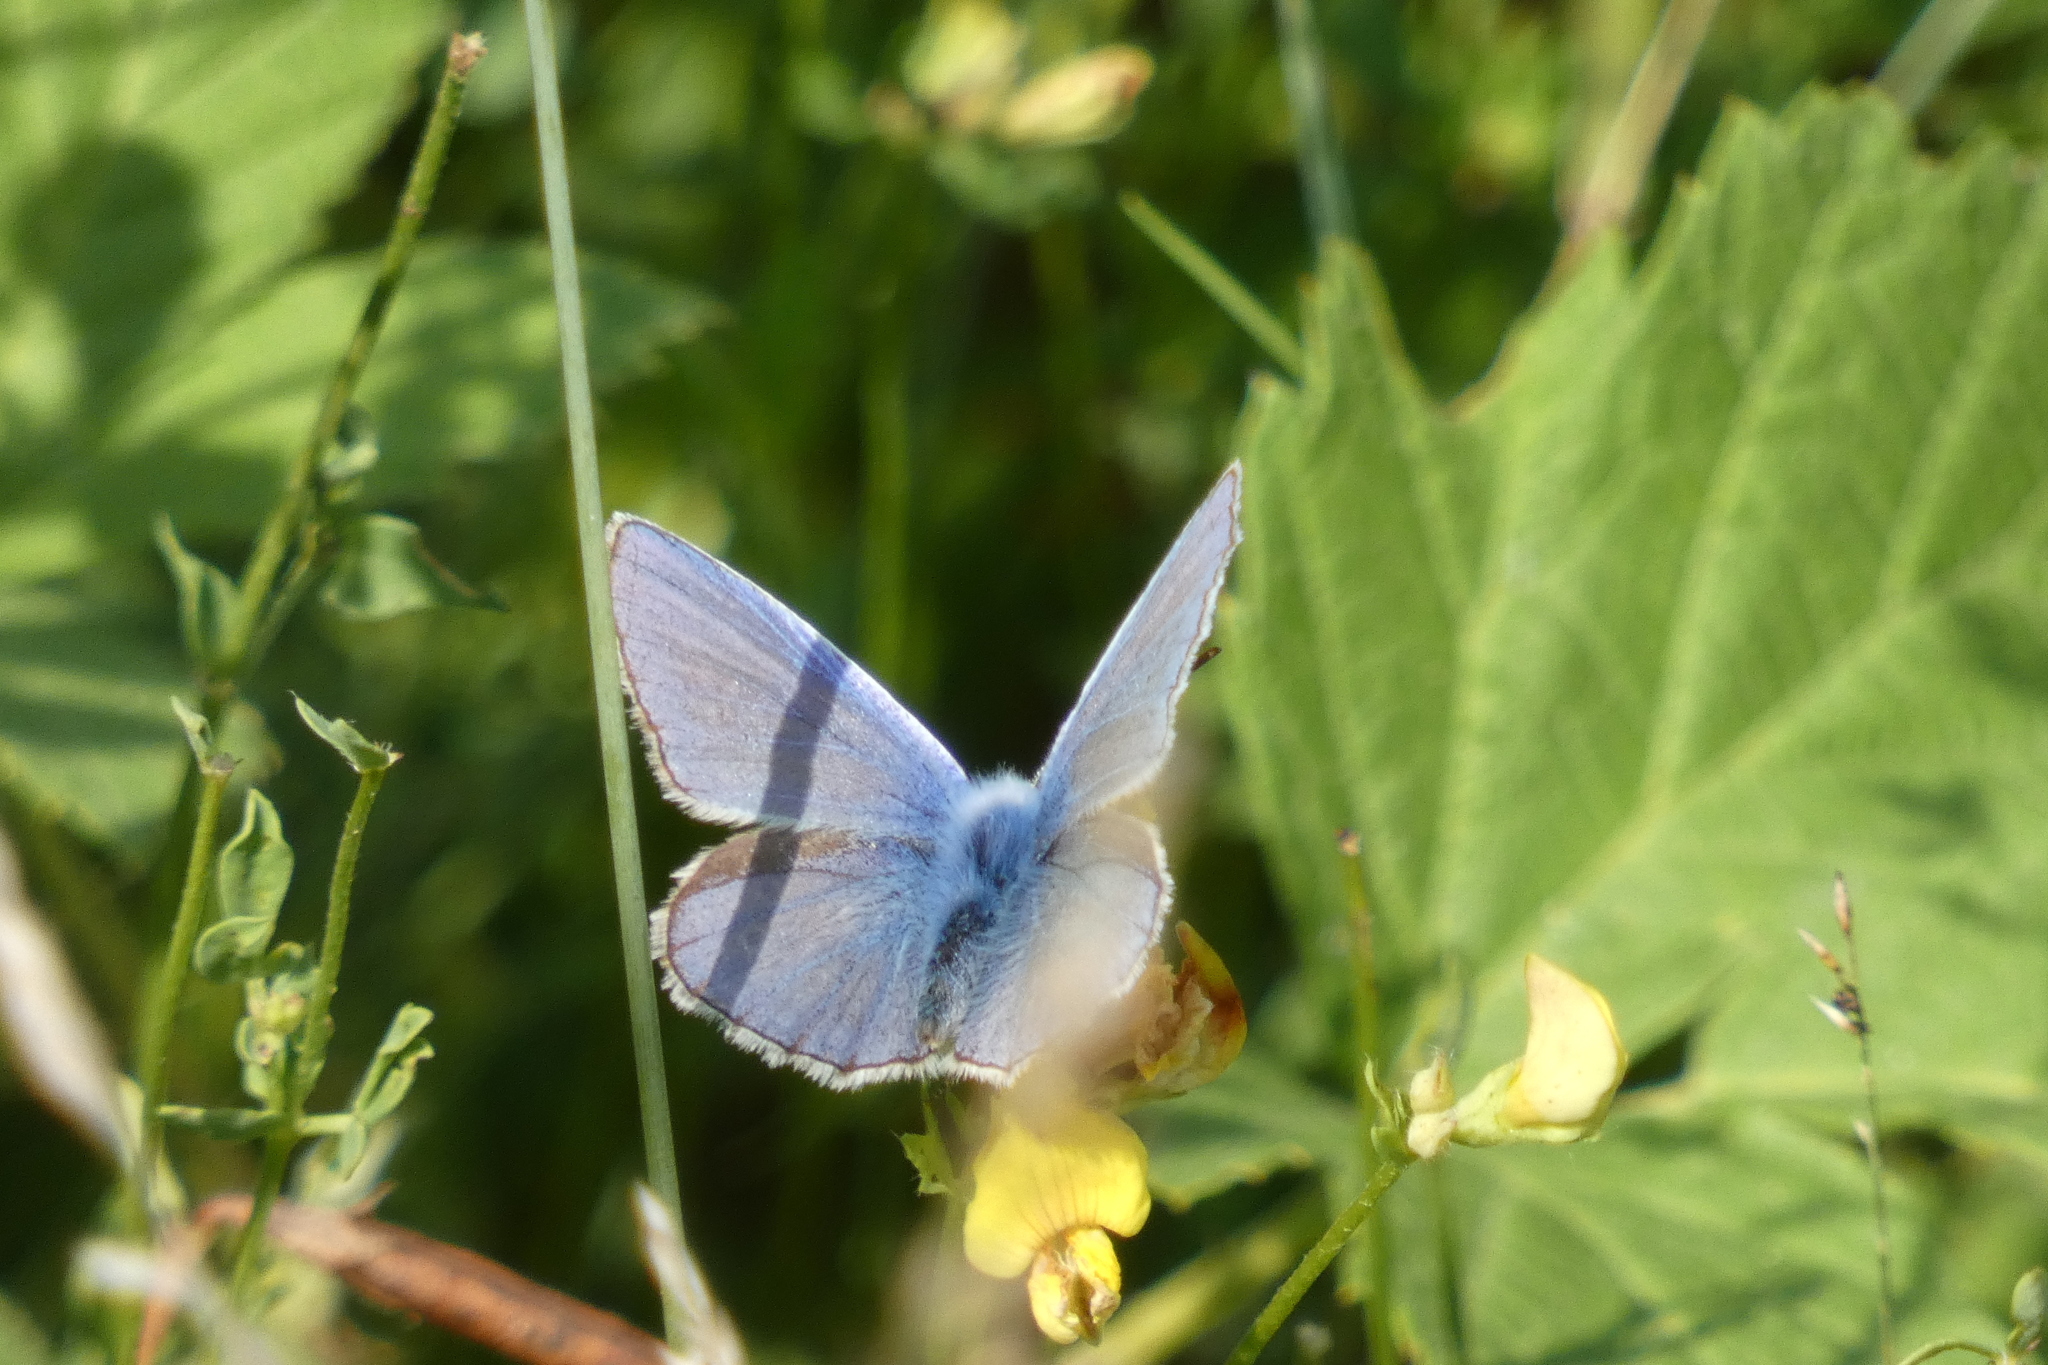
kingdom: Animalia
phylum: Arthropoda
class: Insecta
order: Lepidoptera
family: Lycaenidae
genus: Polyommatus
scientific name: Polyommatus icarus
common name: Common blue
